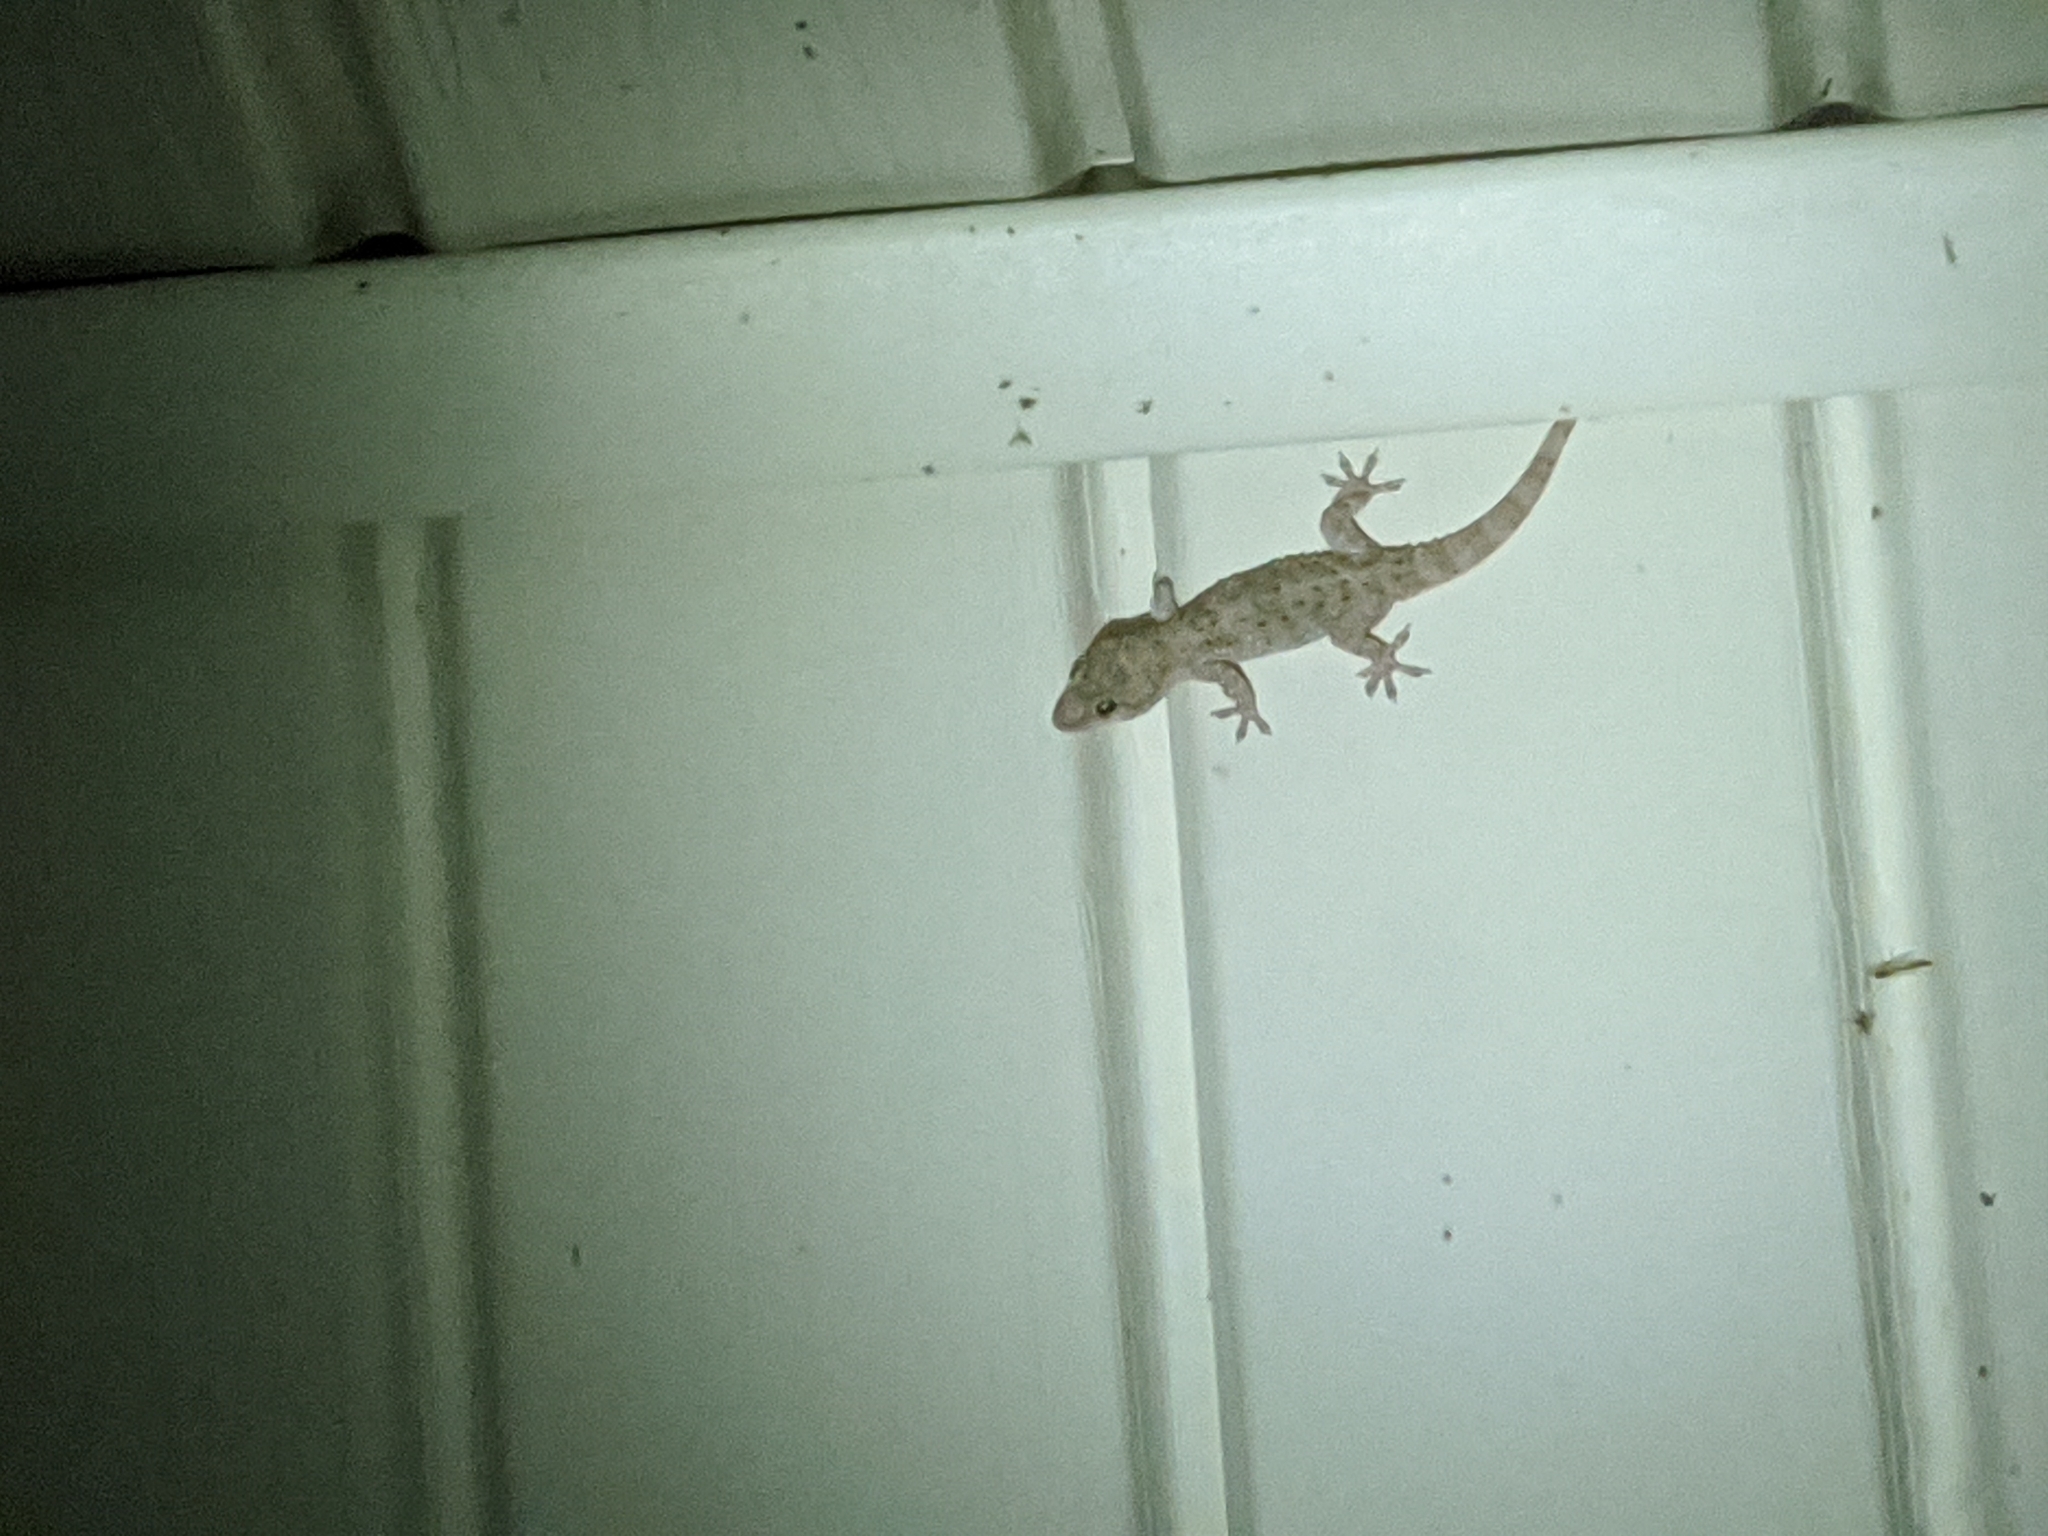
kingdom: Animalia
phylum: Chordata
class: Squamata
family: Gekkonidae
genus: Hemidactylus
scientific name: Hemidactylus turcicus
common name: Turkish gecko
